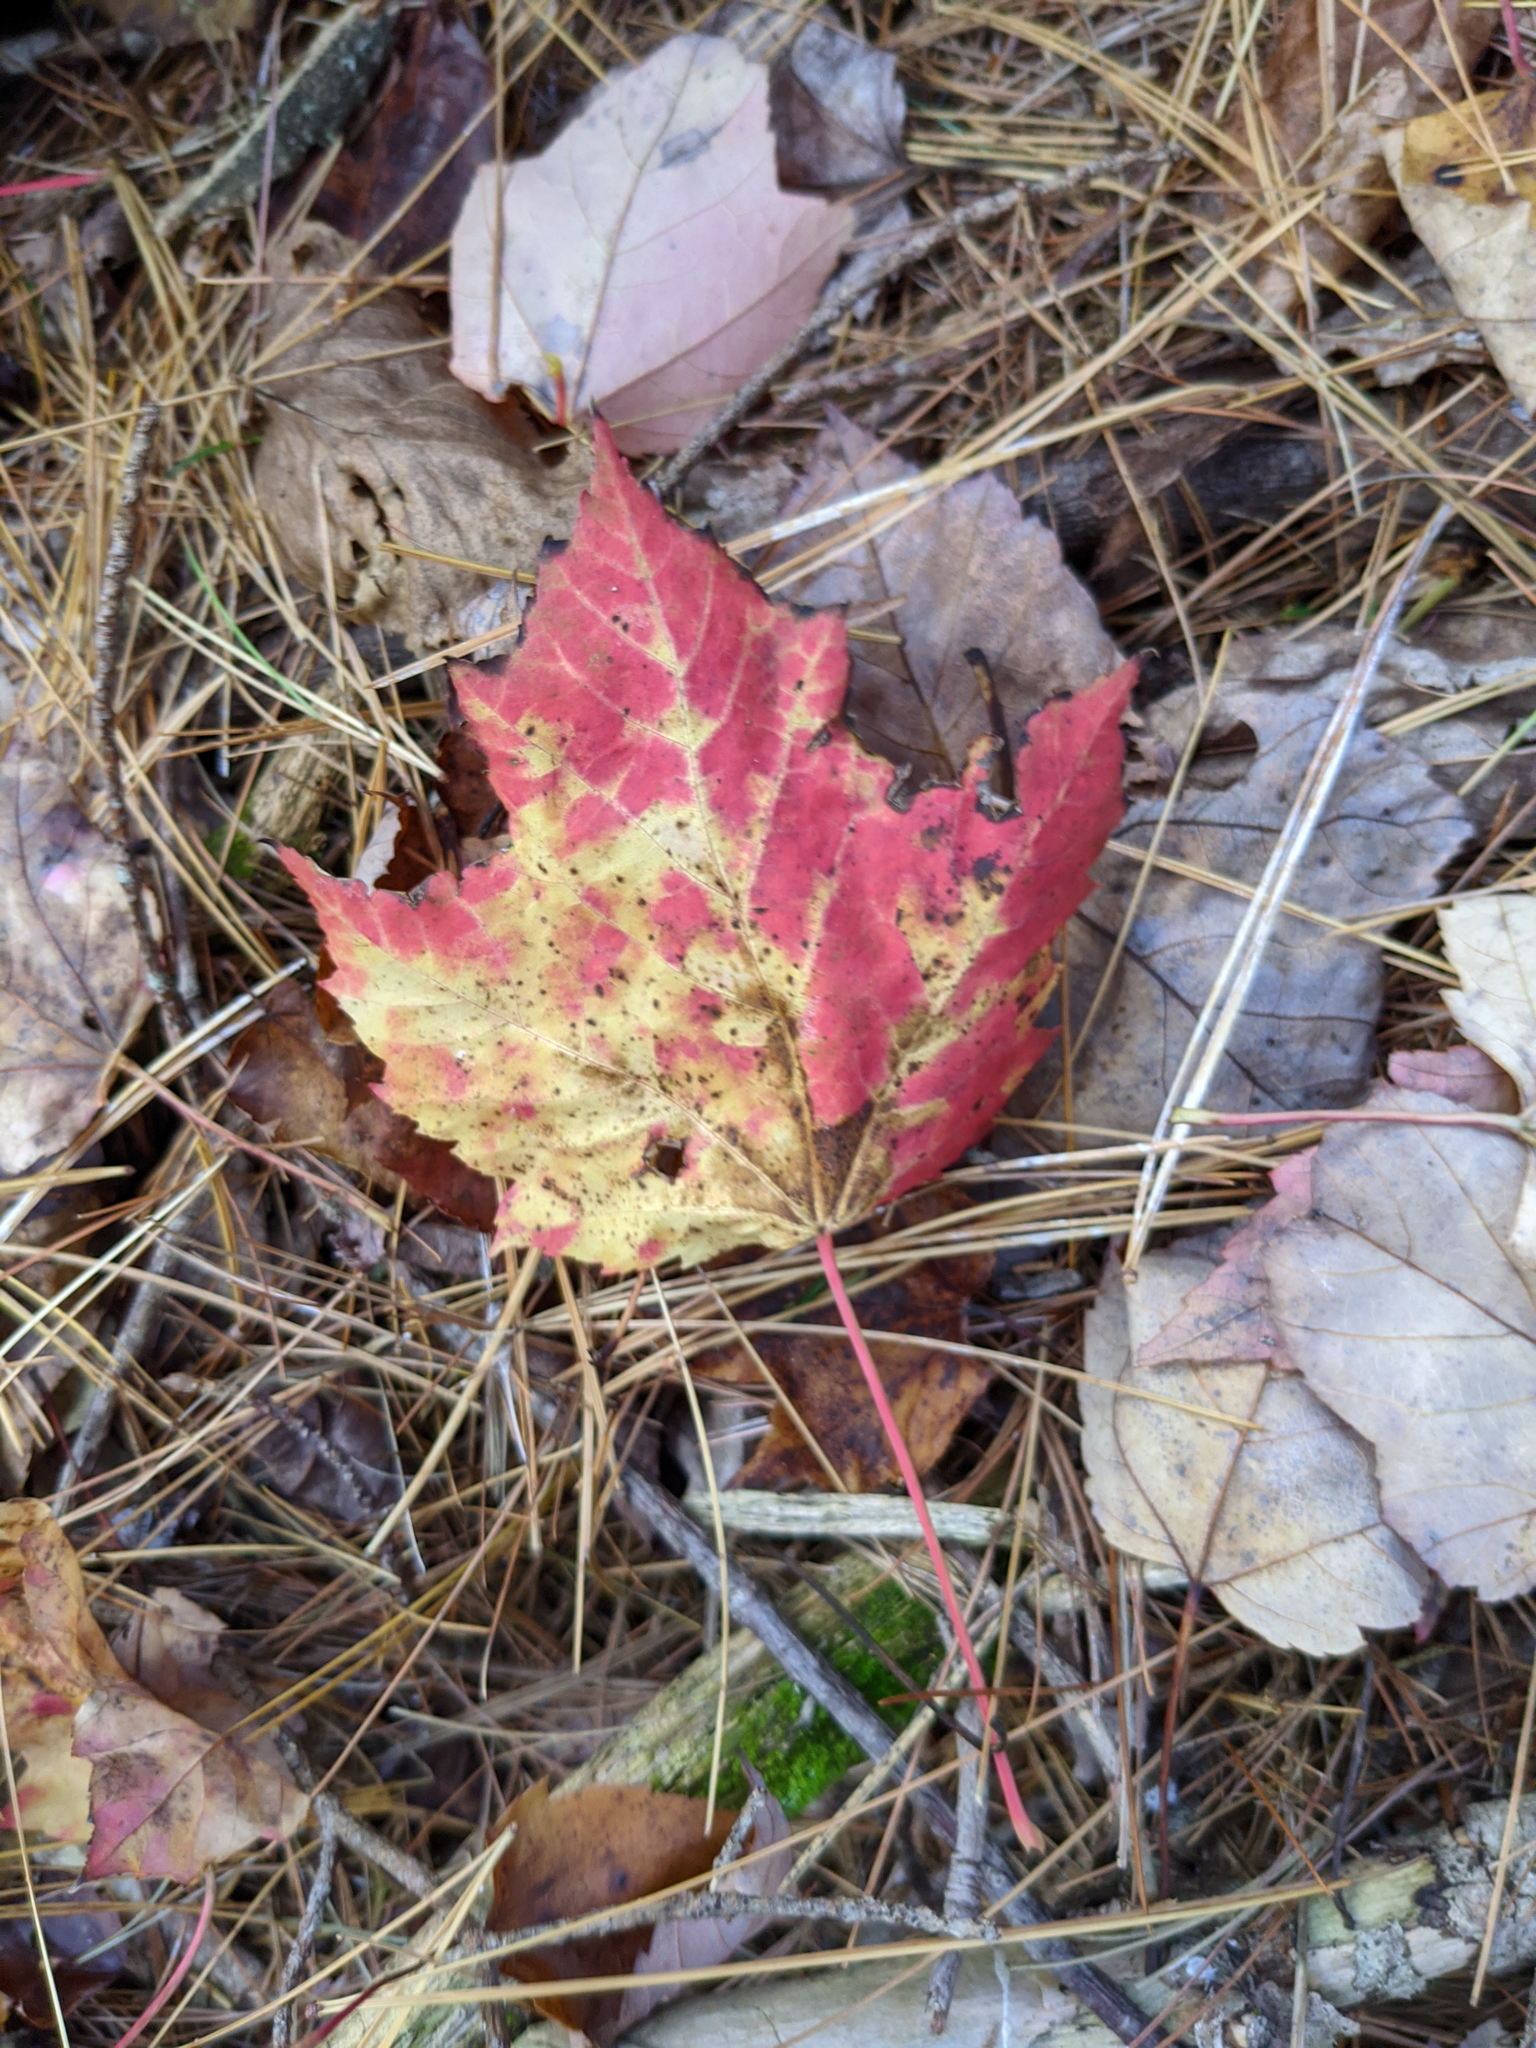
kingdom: Plantae
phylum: Tracheophyta
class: Magnoliopsida
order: Sapindales
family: Sapindaceae
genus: Acer
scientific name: Acer rubrum
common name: Red maple
